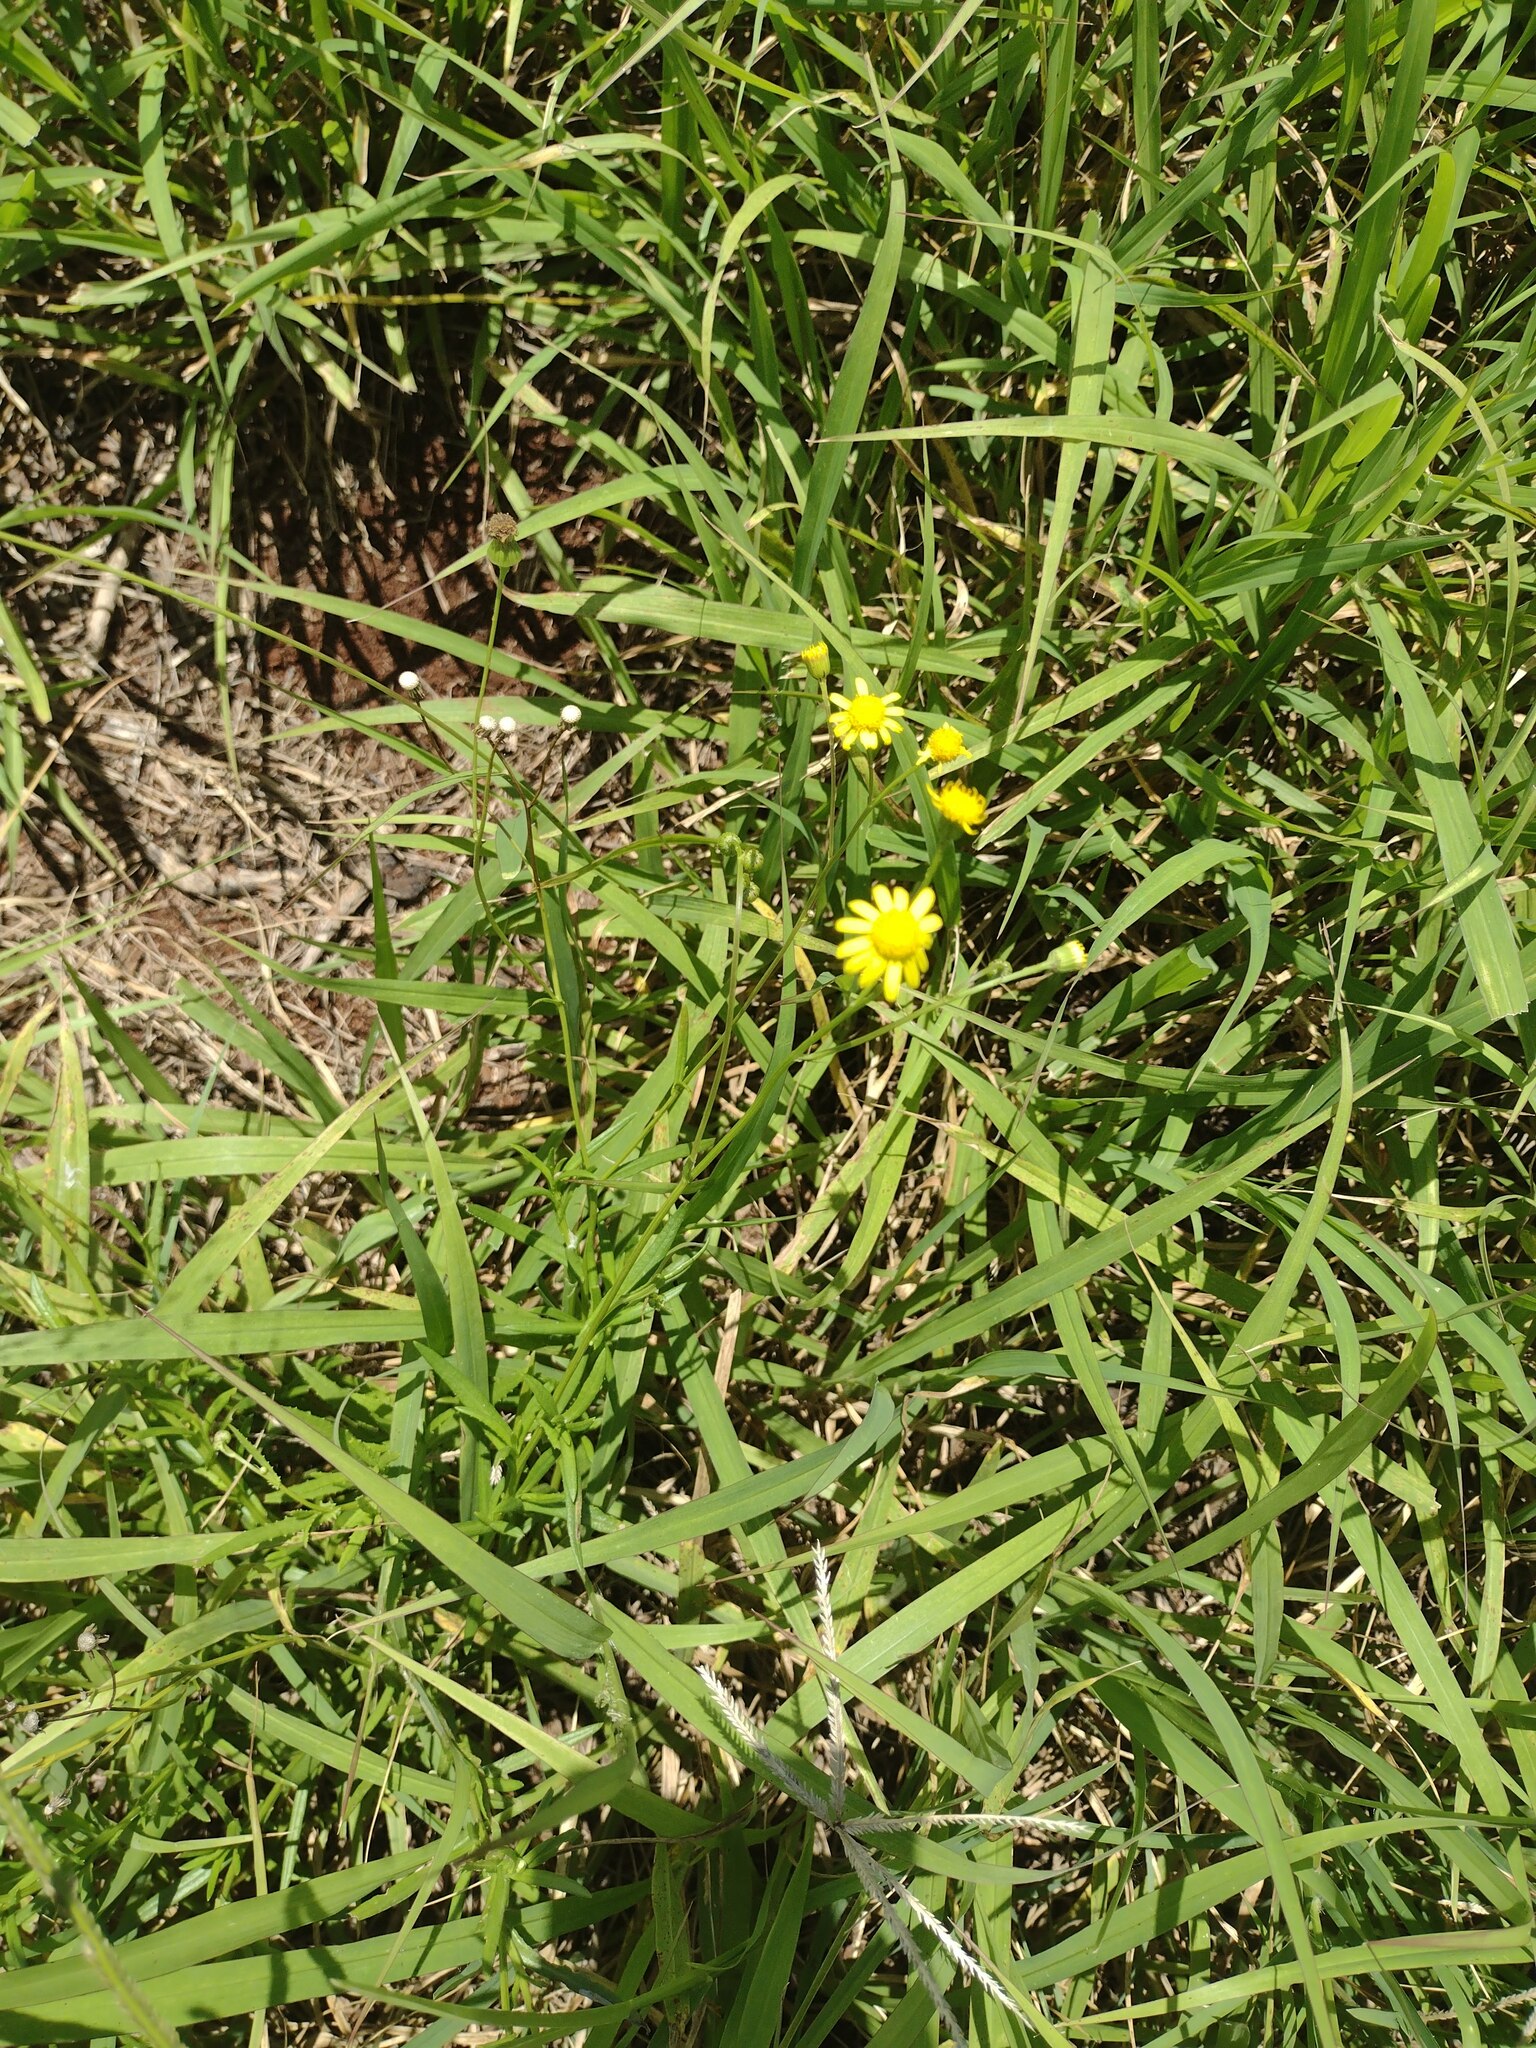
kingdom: Plantae
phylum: Tracheophyta
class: Magnoliopsida
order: Asterales
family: Asteraceae
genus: Senecio
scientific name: Senecio madagascariensis
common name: Madagascar ragwort
